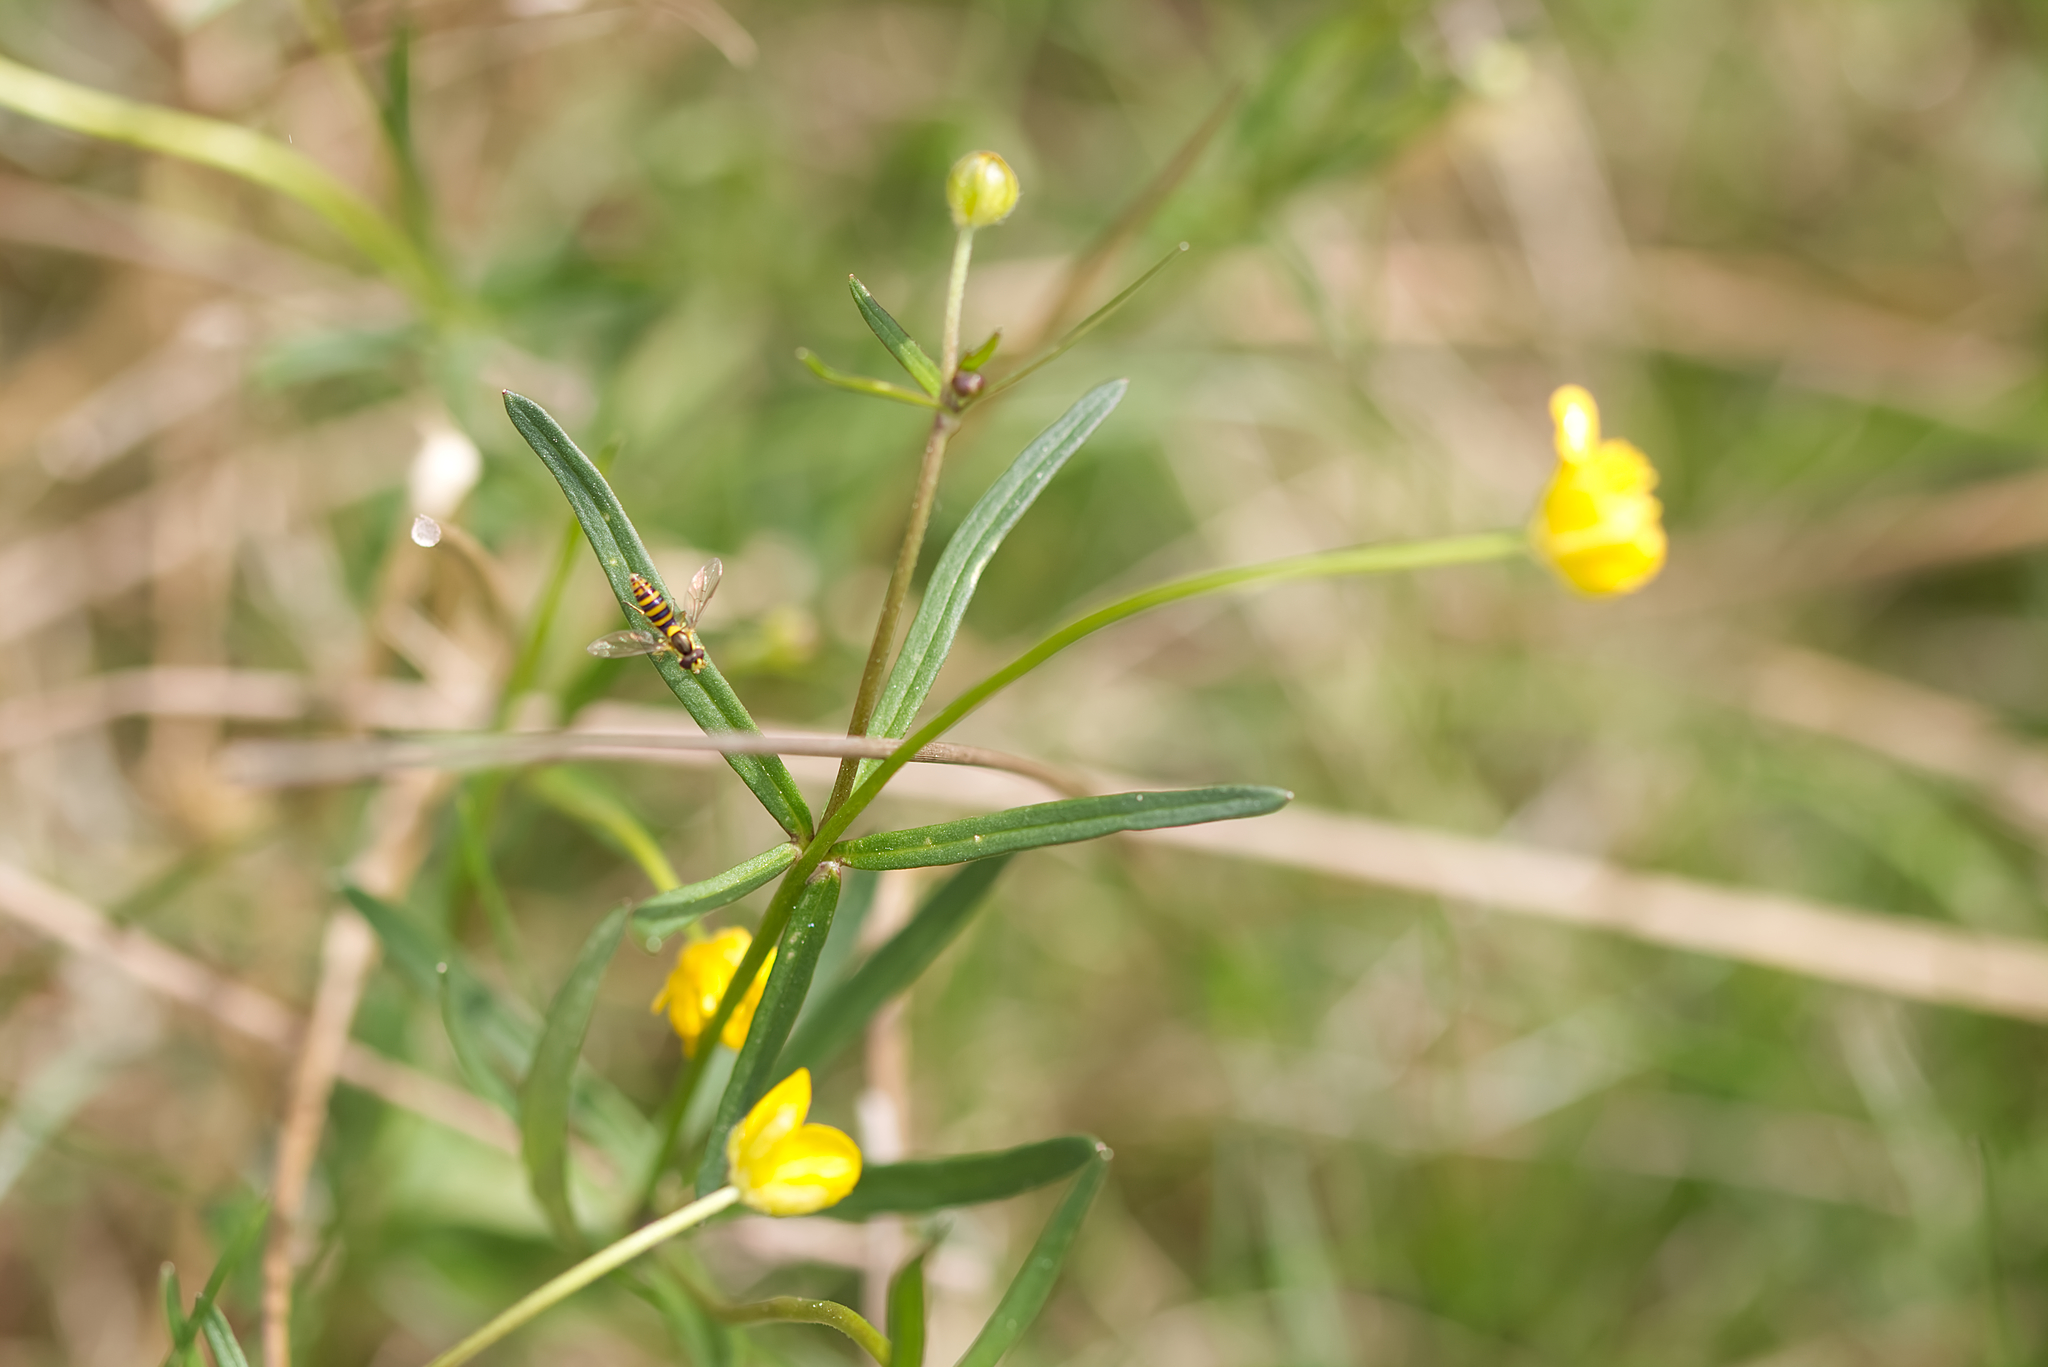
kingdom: Animalia
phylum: Arthropoda
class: Insecta
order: Diptera
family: Syrphidae
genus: Sphaerophoria
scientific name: Sphaerophoria
